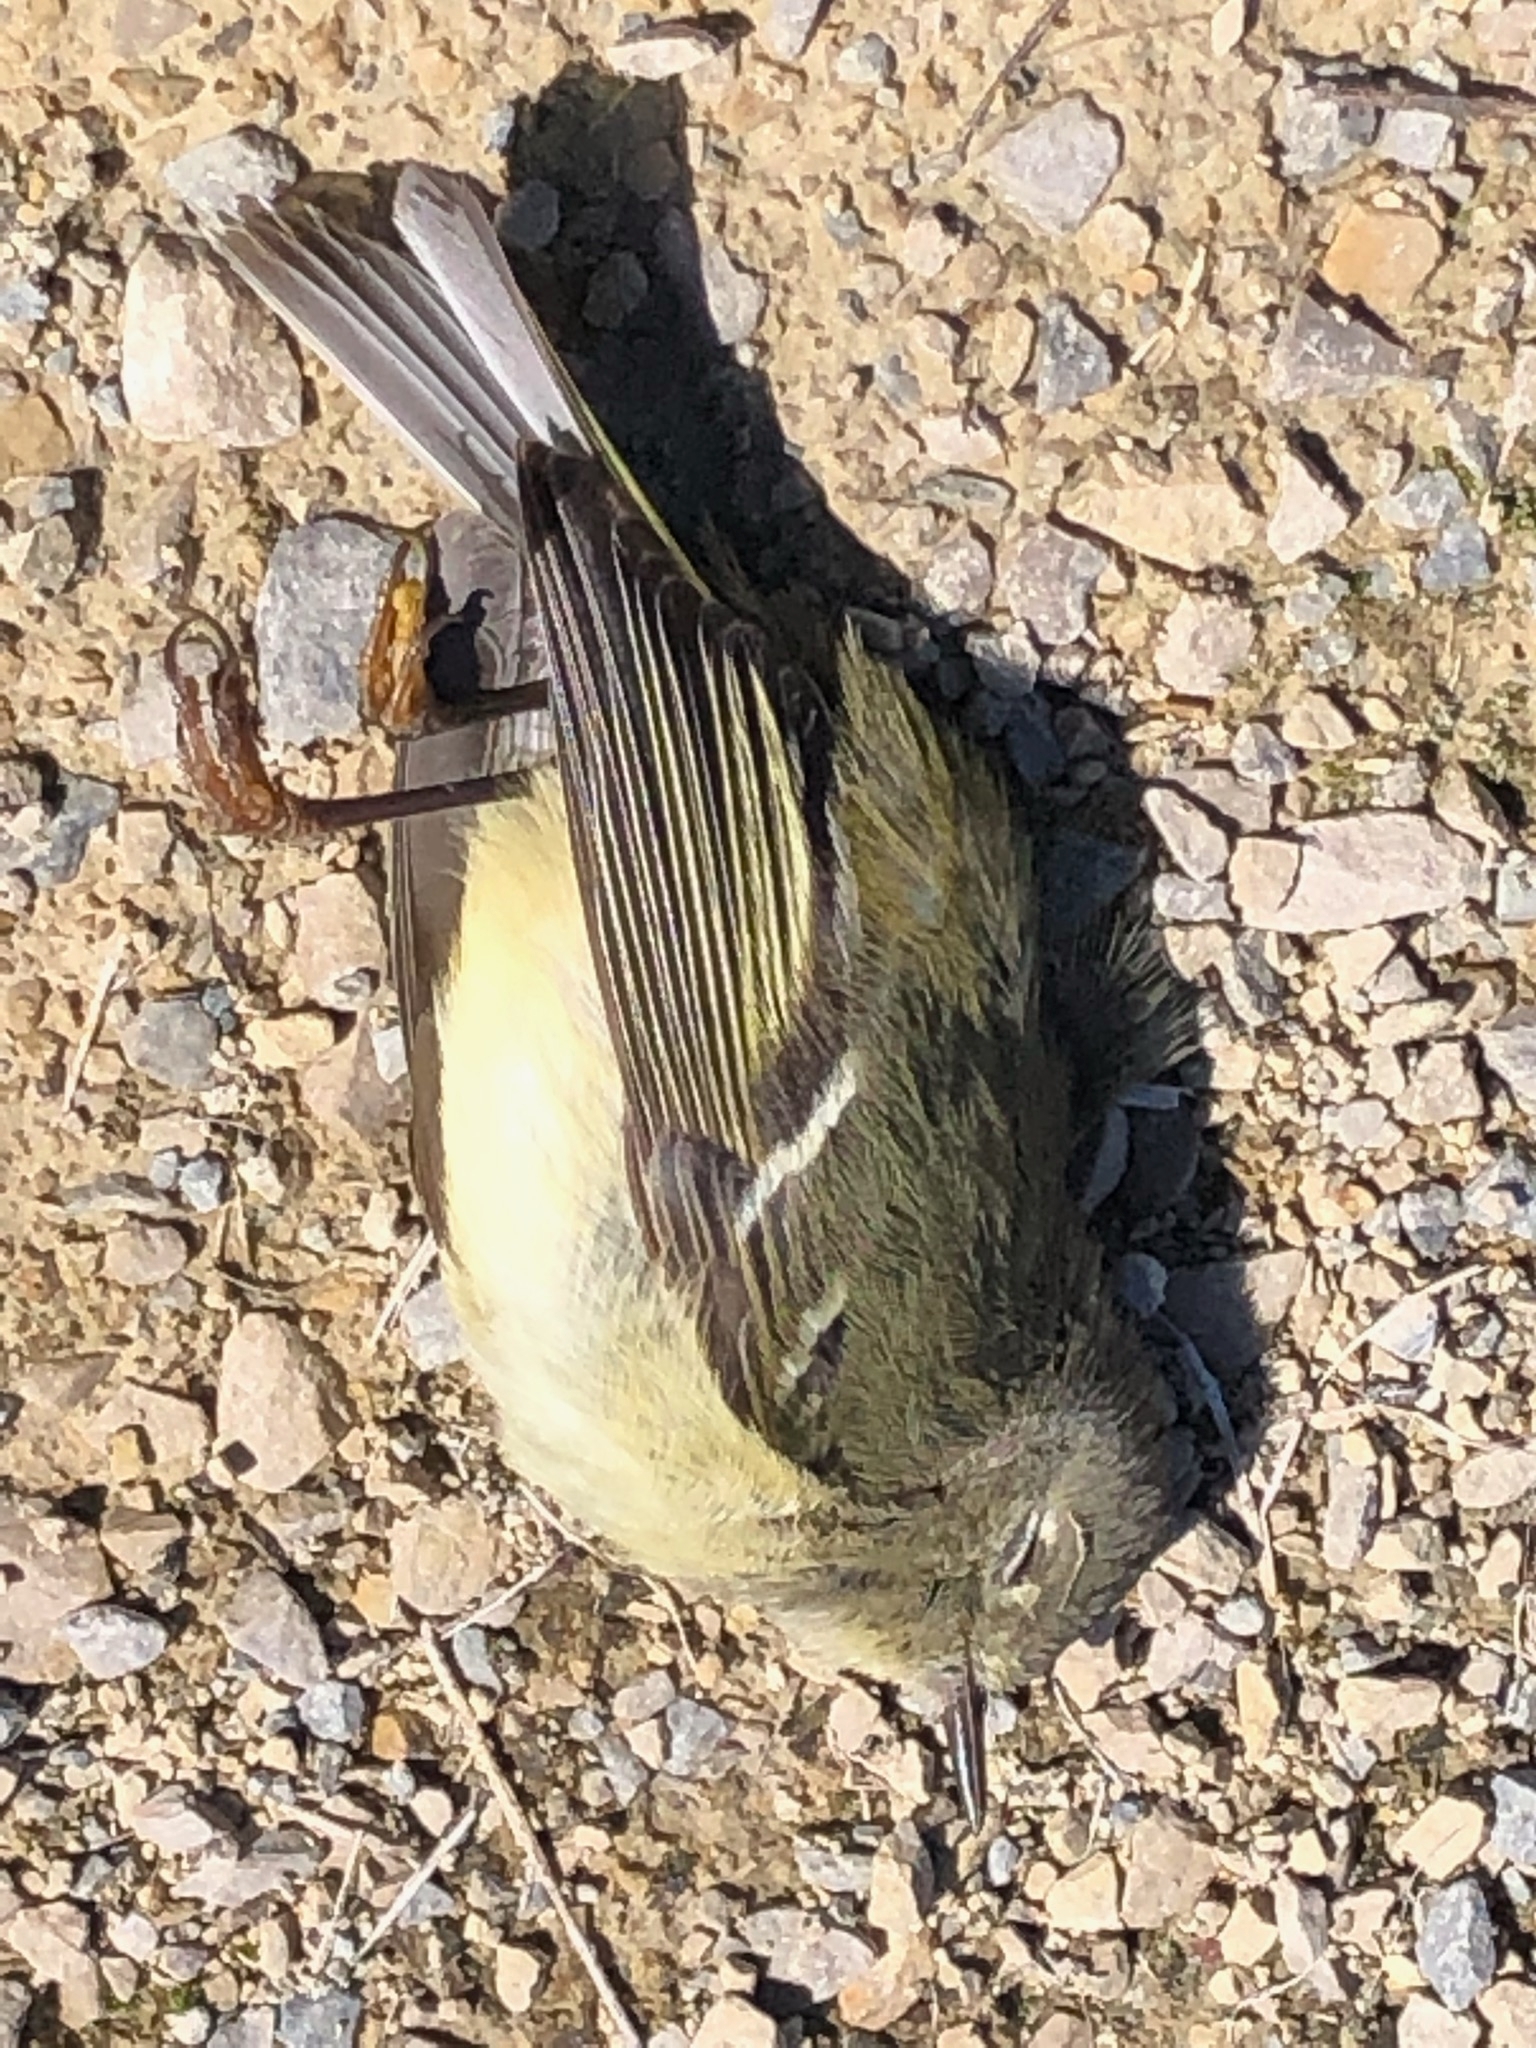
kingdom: Animalia
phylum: Chordata
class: Aves
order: Passeriformes
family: Regulidae
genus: Regulus
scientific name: Regulus calendula
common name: Ruby-crowned kinglet
